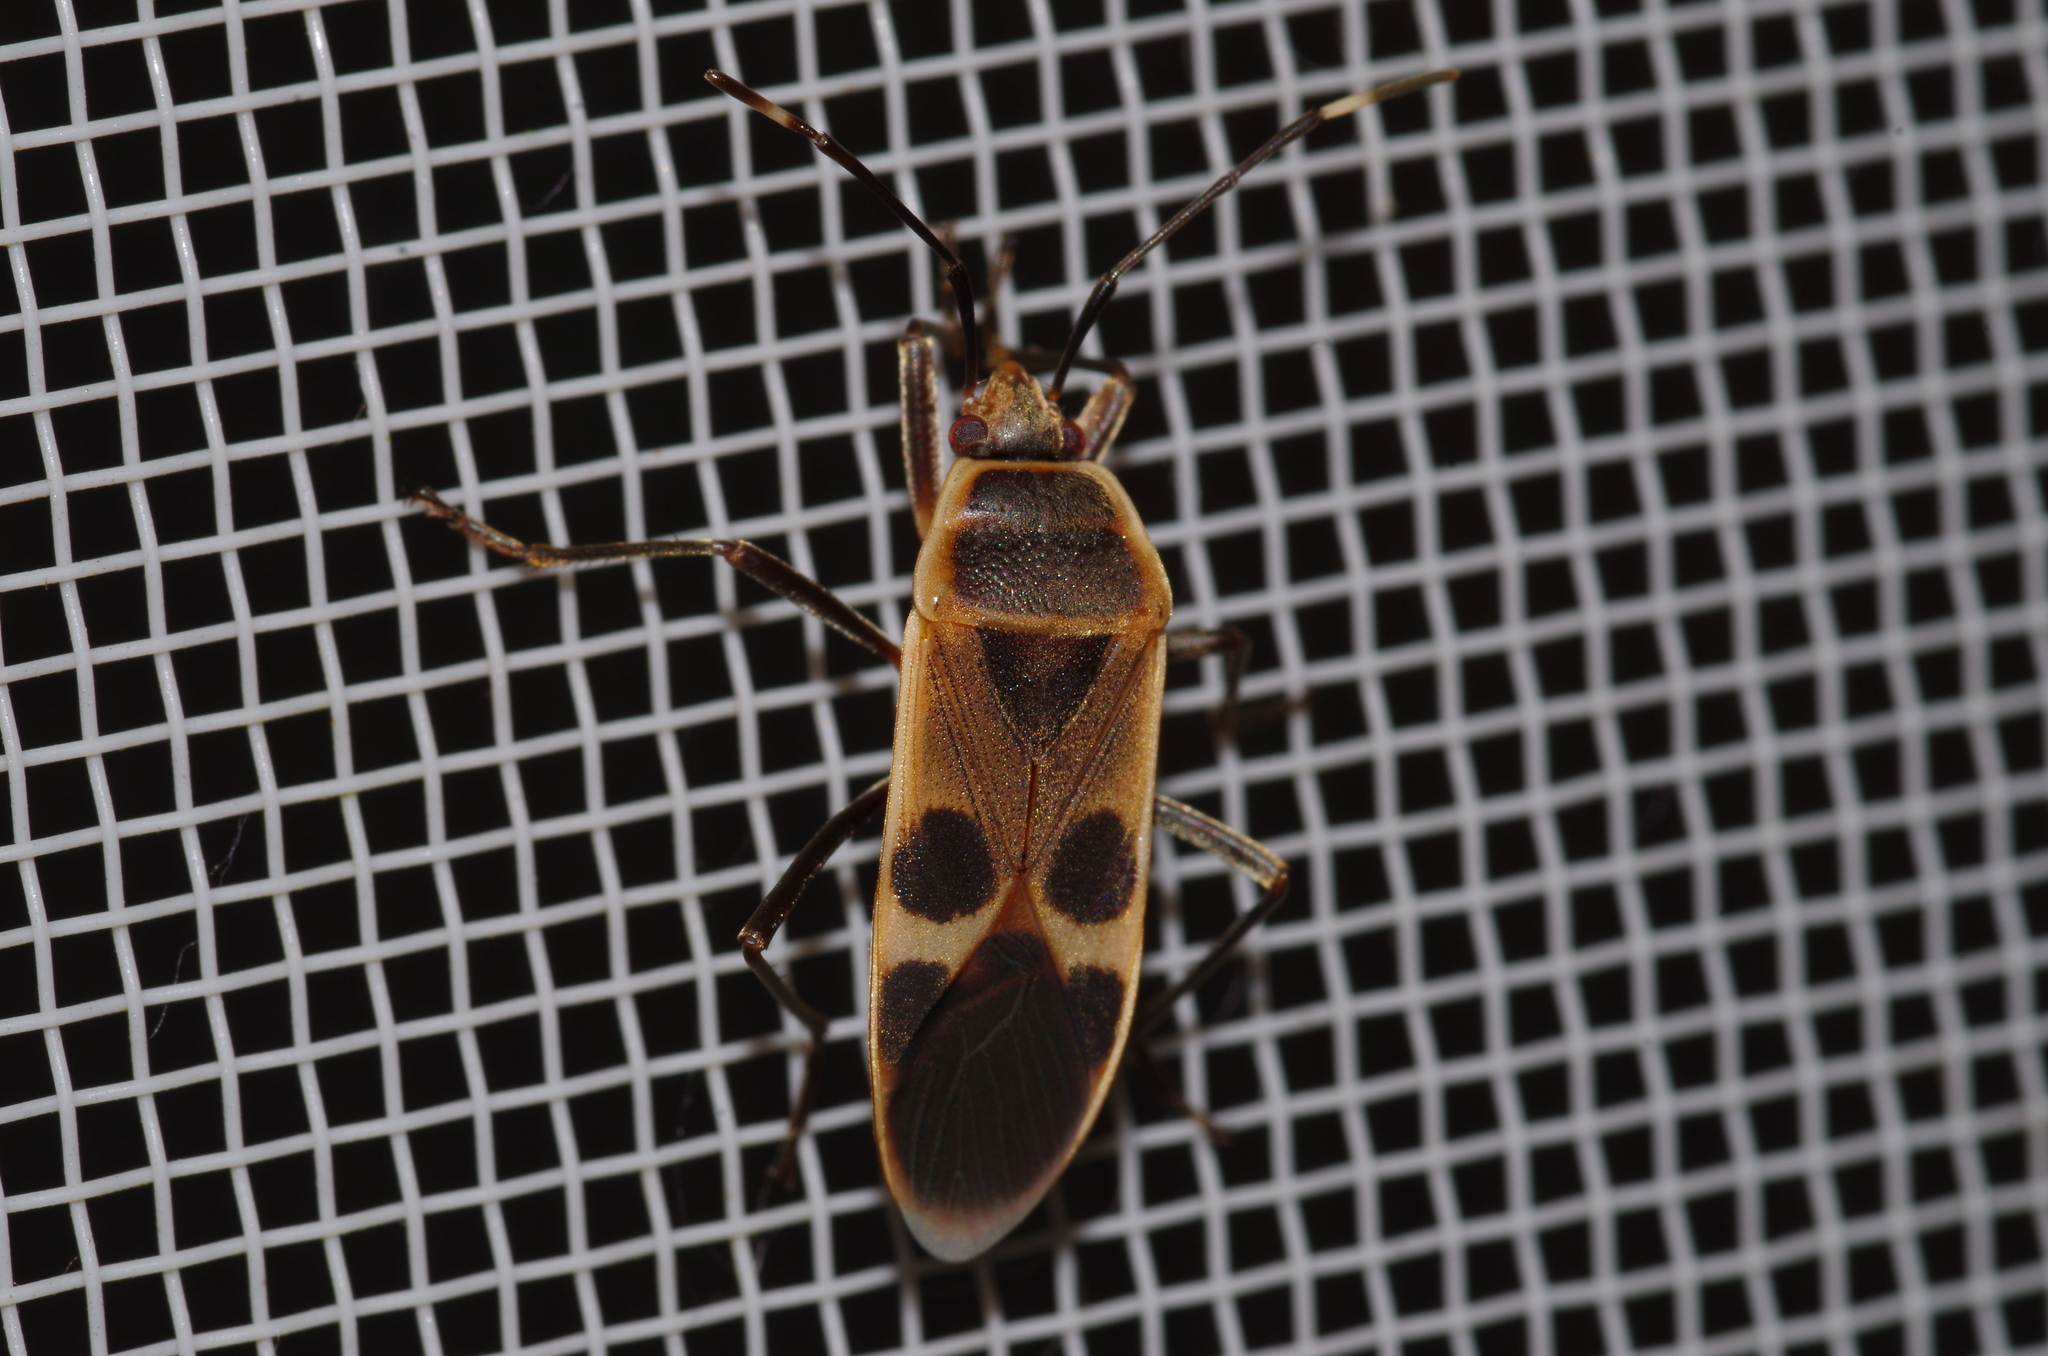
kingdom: Animalia
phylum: Arthropoda
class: Insecta
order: Hemiptera
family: Largidae
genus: Physopelta
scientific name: Physopelta gutta
